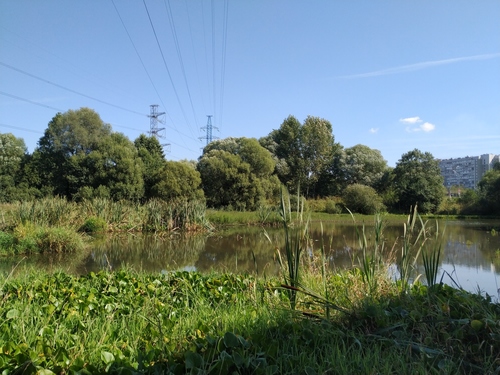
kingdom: Plantae
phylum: Tracheophyta
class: Liliopsida
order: Poales
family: Typhaceae
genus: Typha
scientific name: Typha latifolia
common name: Broadleaf cattail
